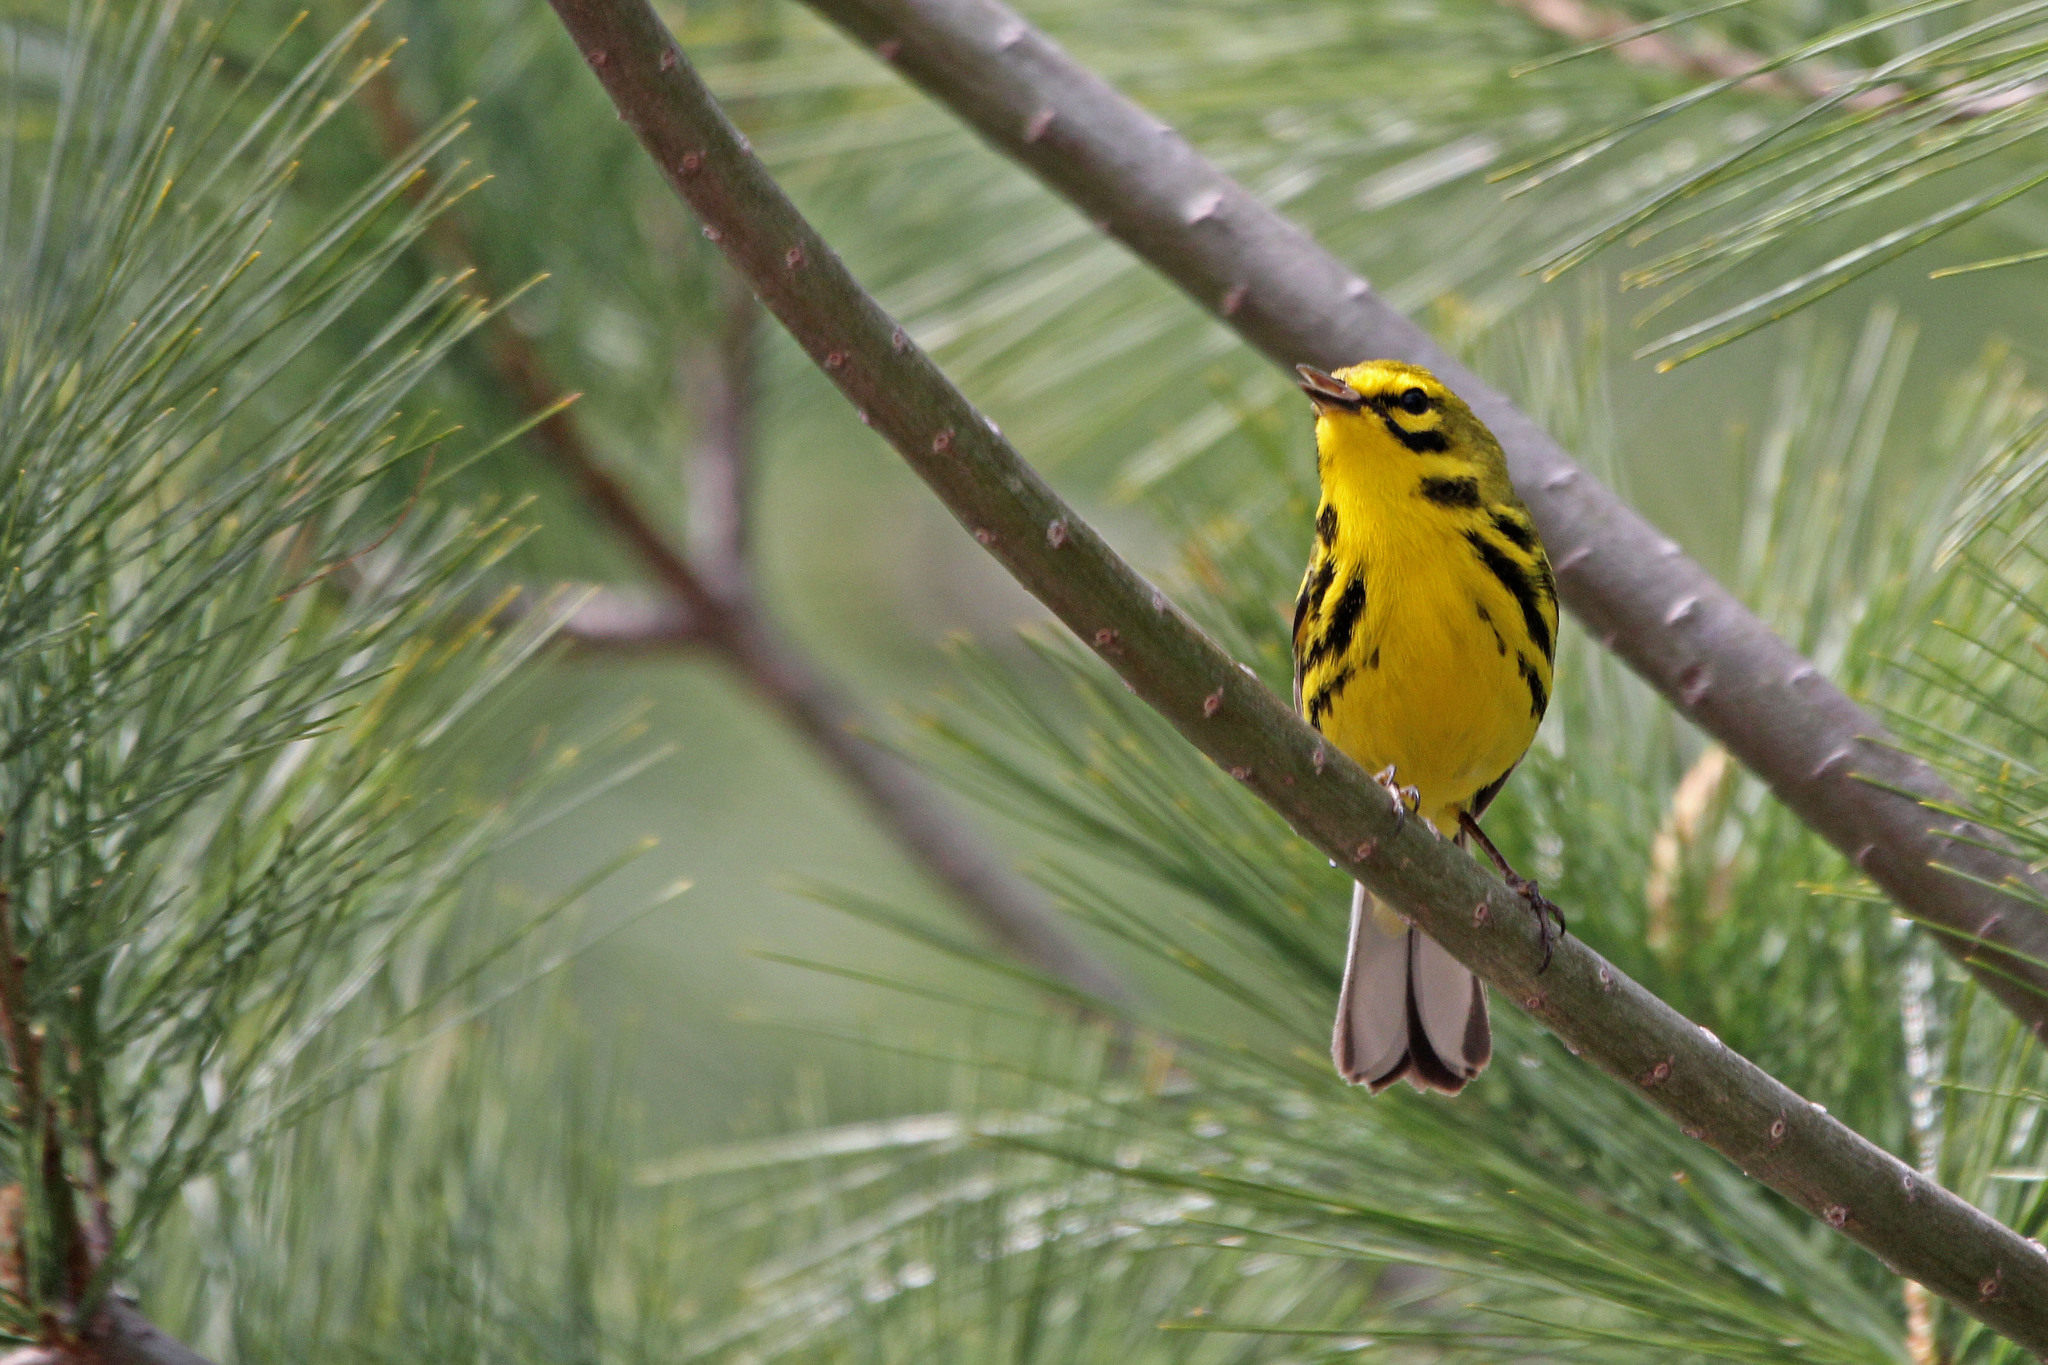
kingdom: Animalia
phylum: Chordata
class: Aves
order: Passeriformes
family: Parulidae
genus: Setophaga
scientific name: Setophaga discolor
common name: Prairie warbler
